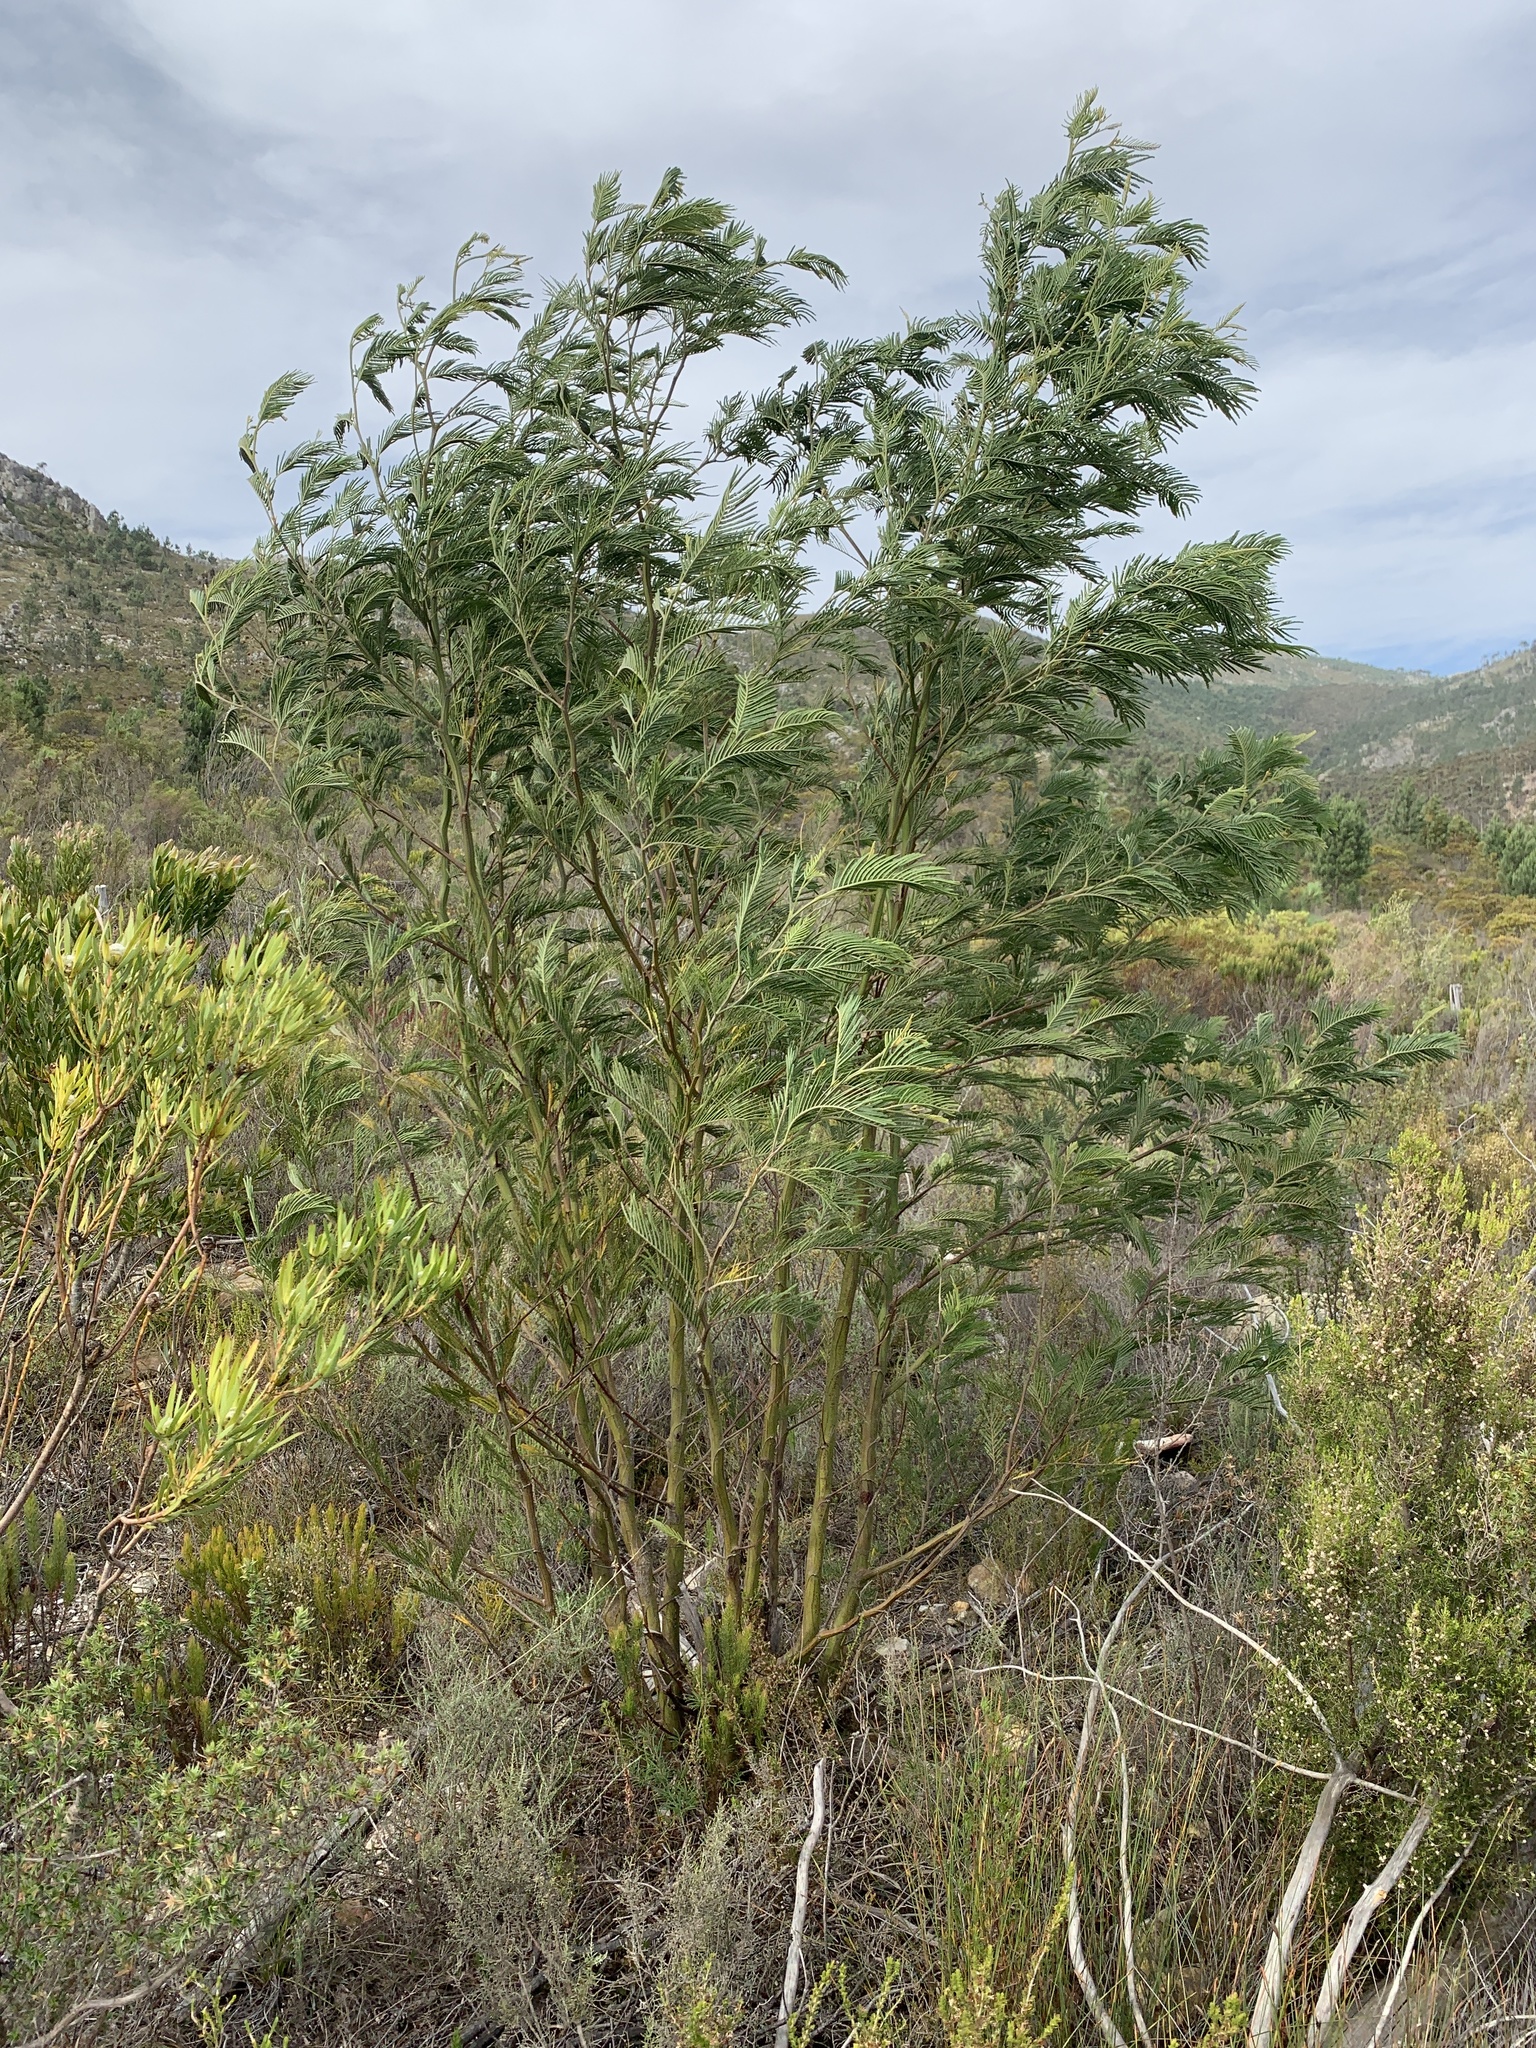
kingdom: Plantae
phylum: Tracheophyta
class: Magnoliopsida
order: Fabales
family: Fabaceae
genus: Acacia
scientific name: Acacia mearnsii
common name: Black wattle
